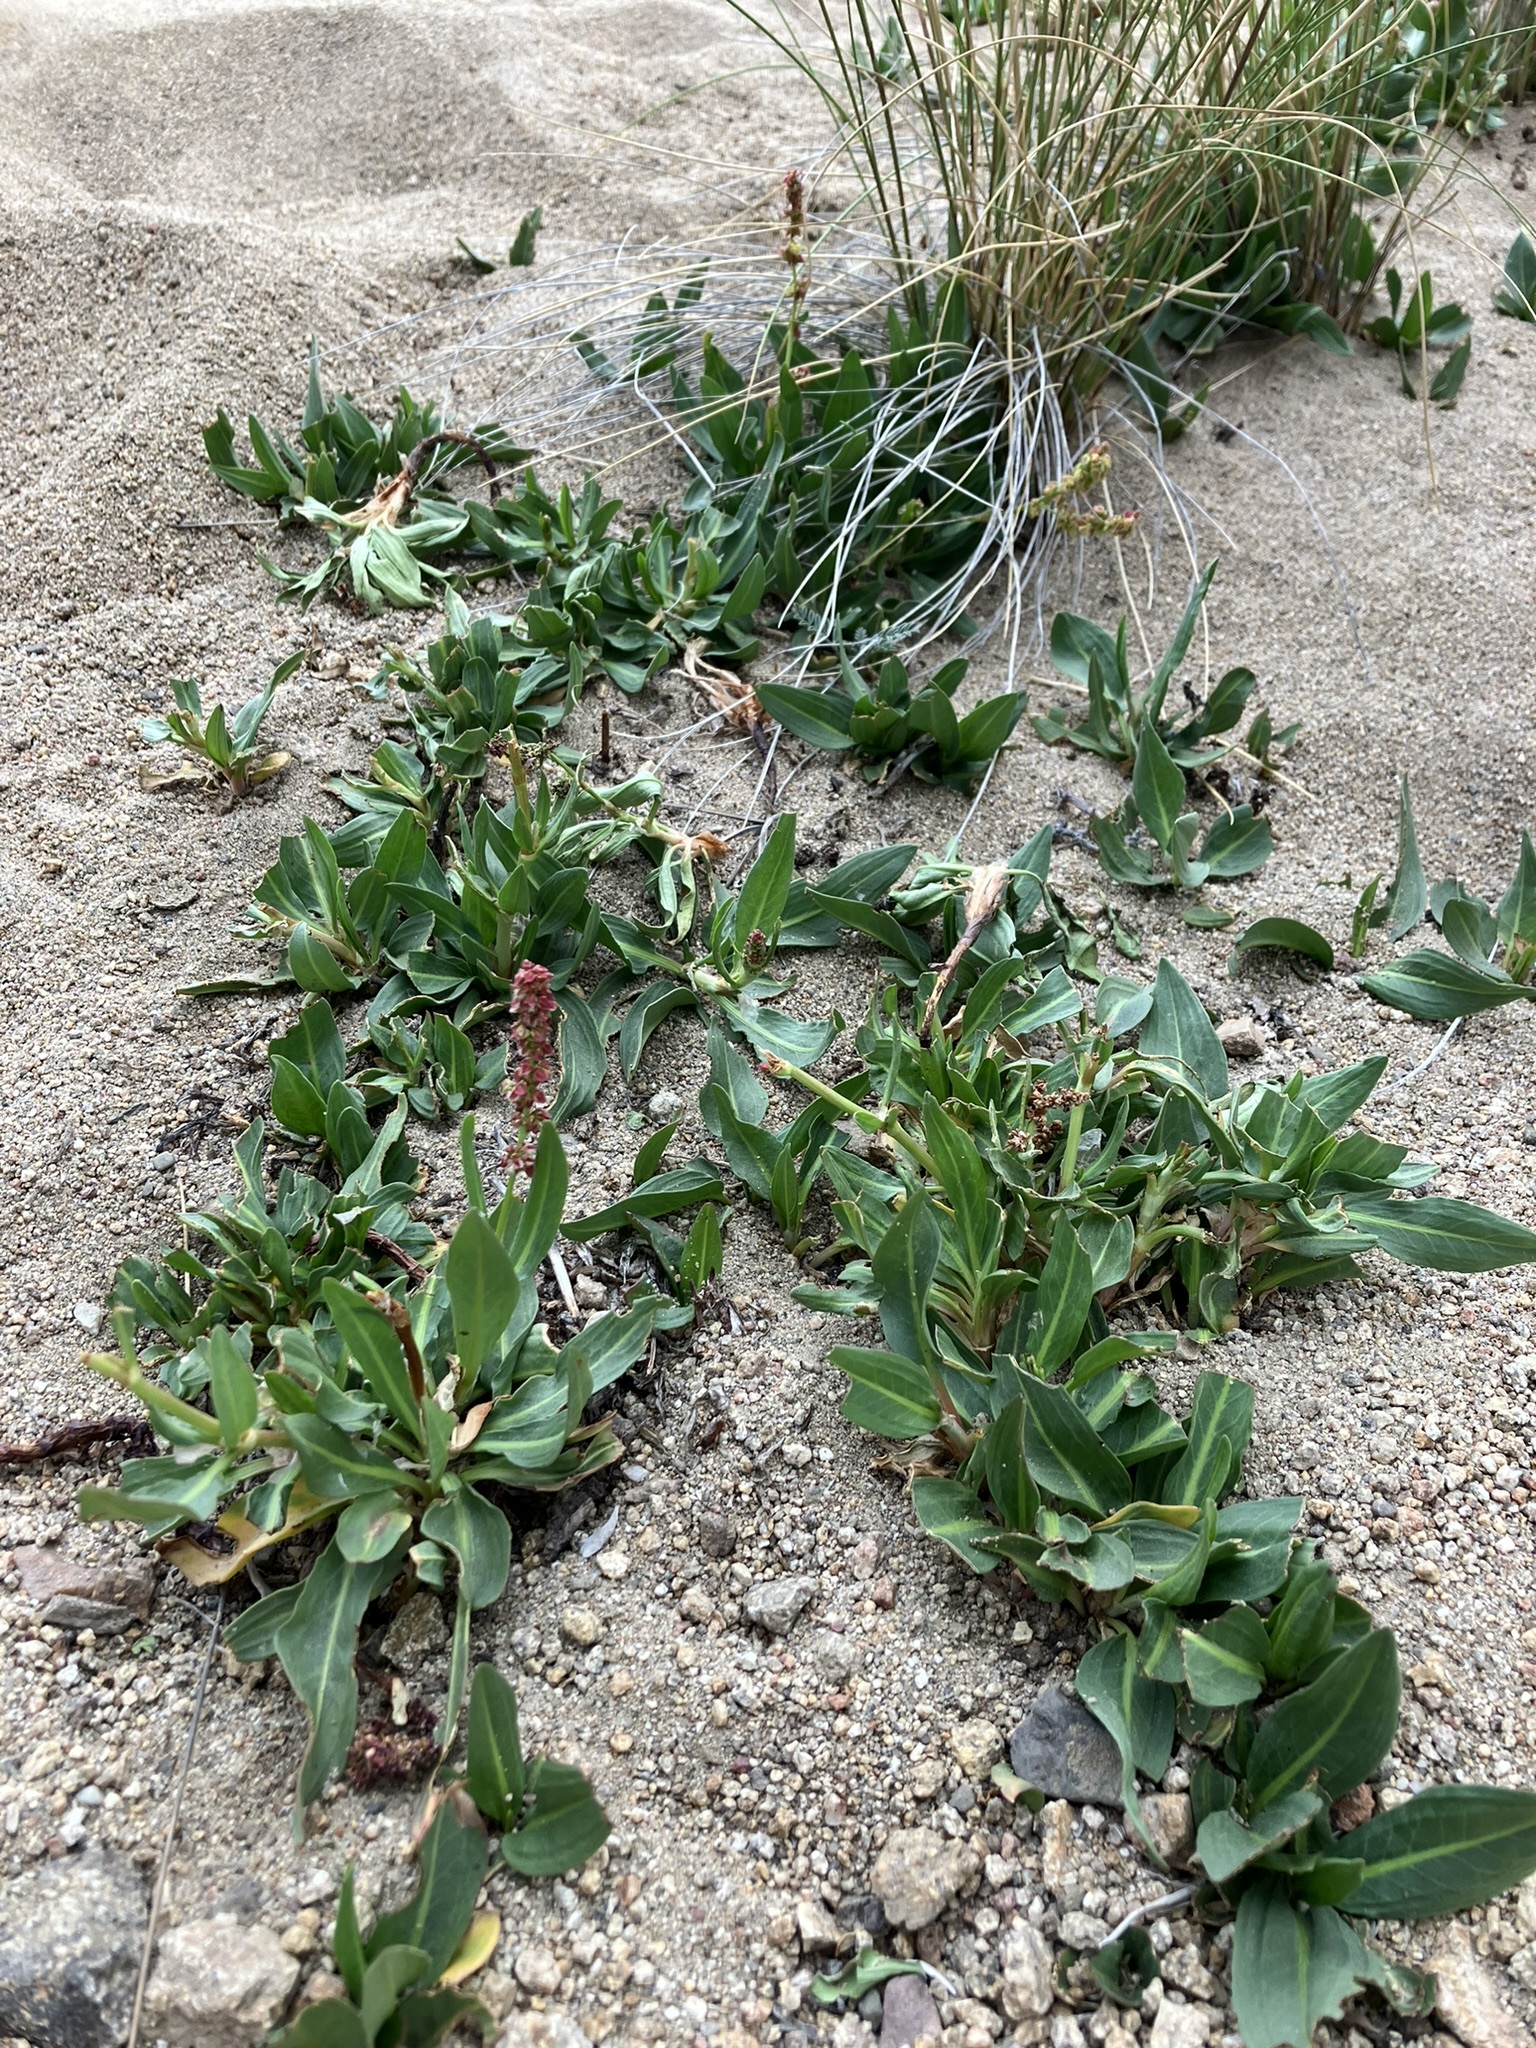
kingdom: Plantae
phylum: Tracheophyta
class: Magnoliopsida
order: Caryophyllales
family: Polygonaceae
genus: Rumex
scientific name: Rumex salicifolius
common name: Willow-leaved dock
